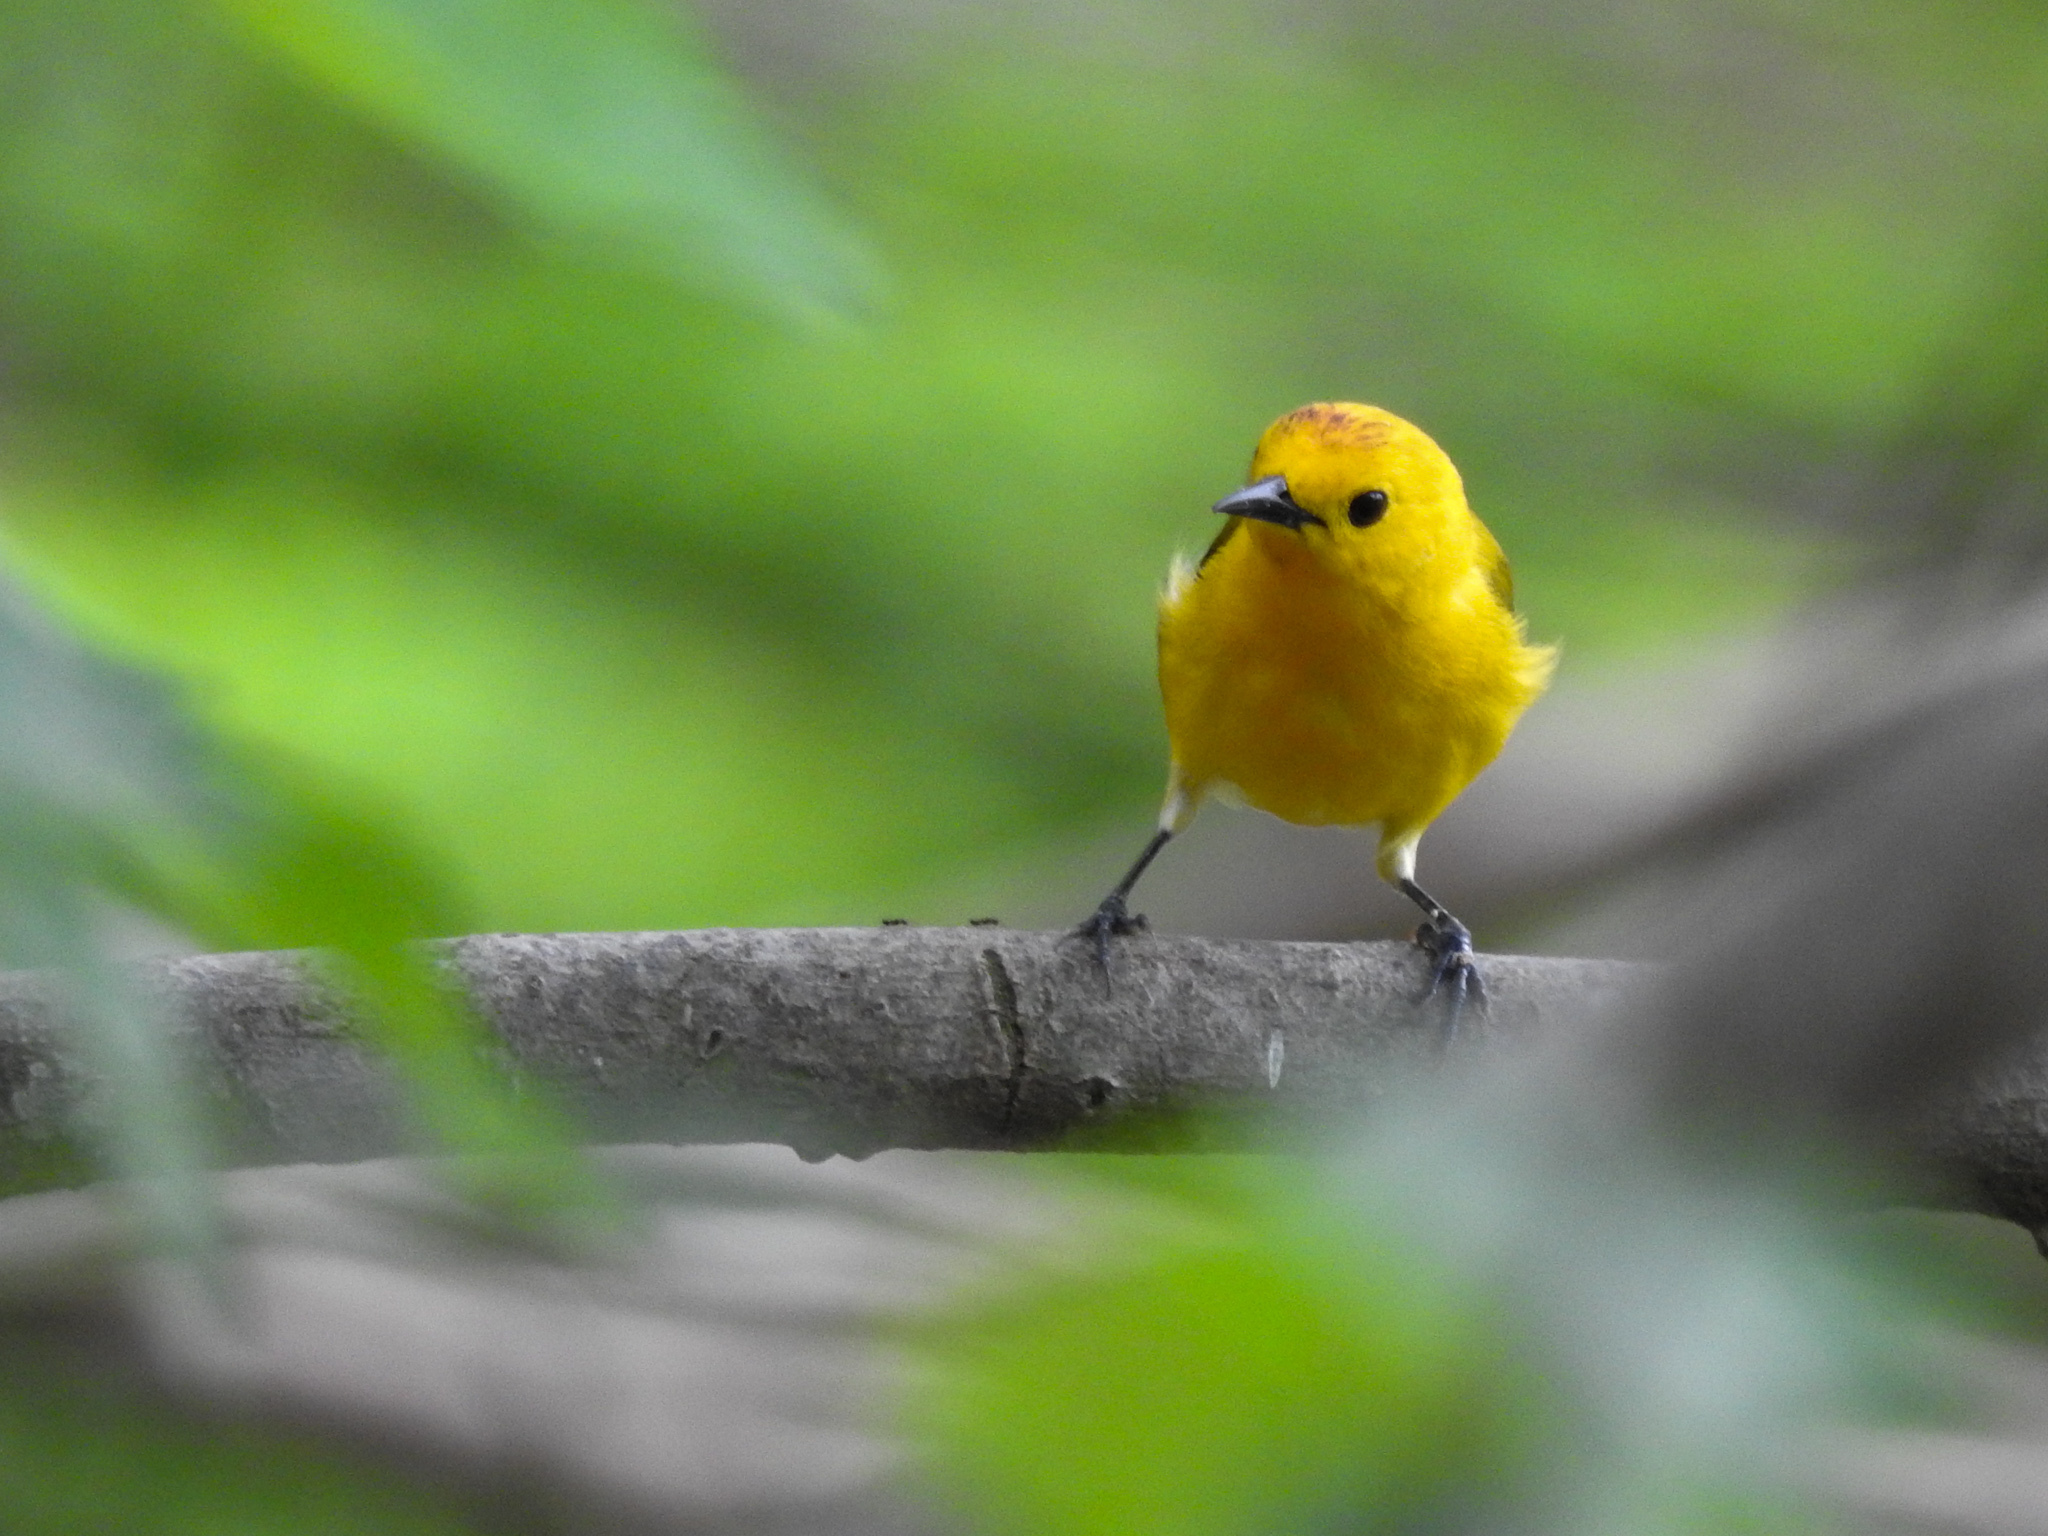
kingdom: Animalia
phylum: Chordata
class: Aves
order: Passeriformes
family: Parulidae
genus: Protonotaria
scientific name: Protonotaria citrea
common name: Prothonotary warbler
